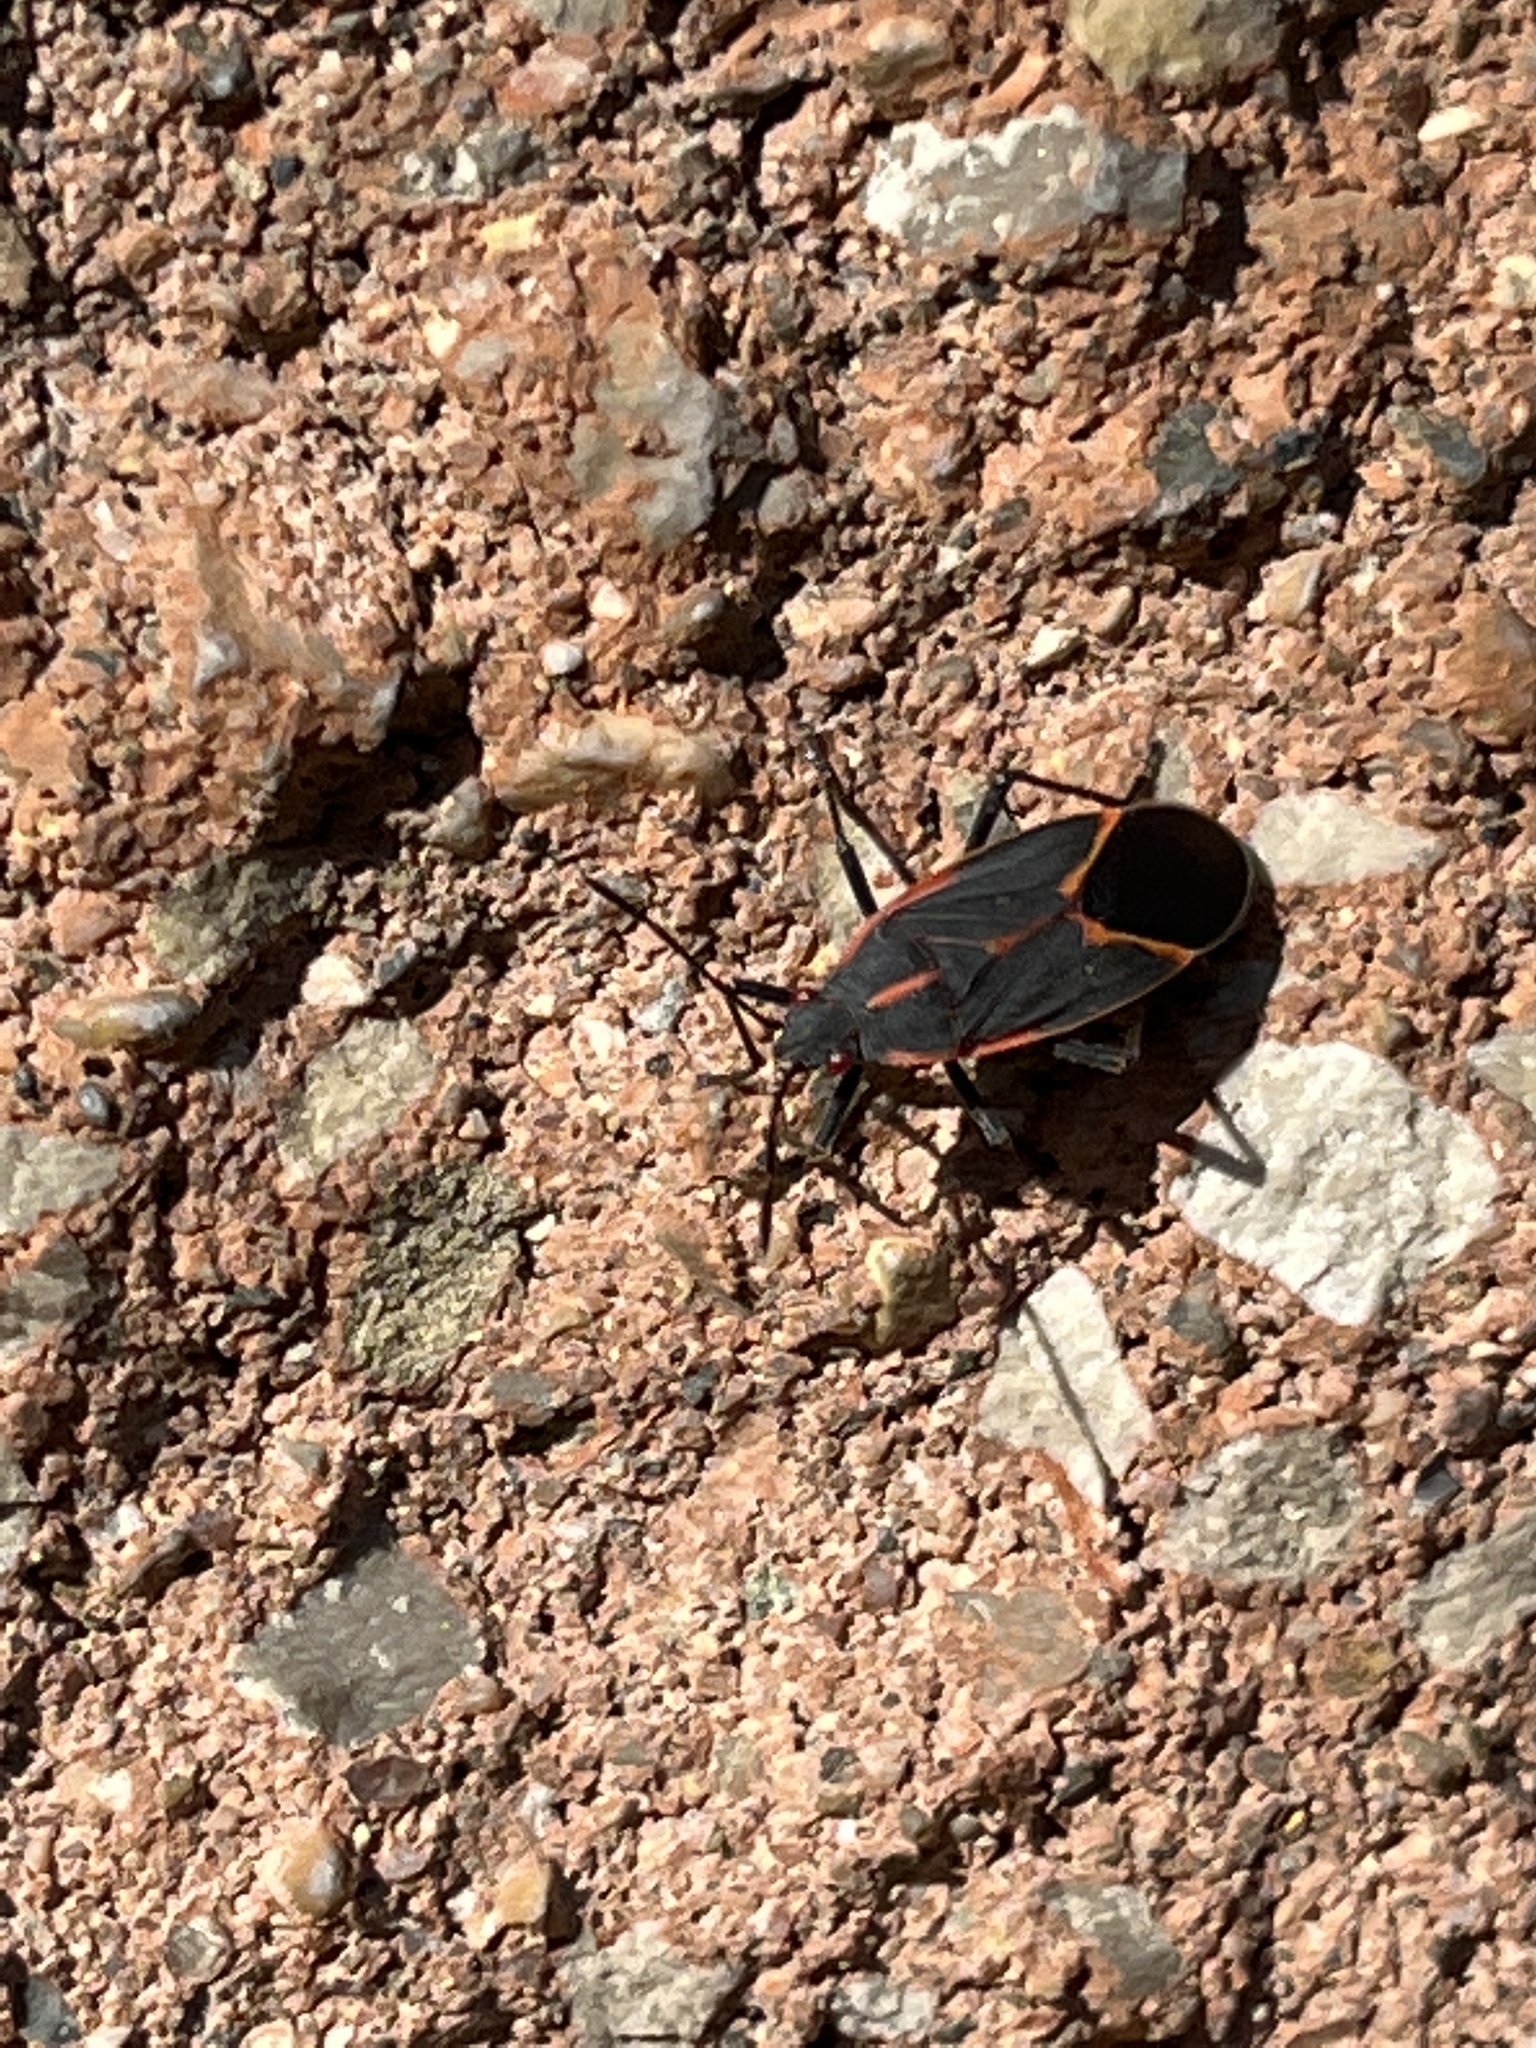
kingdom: Animalia
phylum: Arthropoda
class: Insecta
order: Hemiptera
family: Rhopalidae
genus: Boisea
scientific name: Boisea trivittata
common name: Boxelder bug
